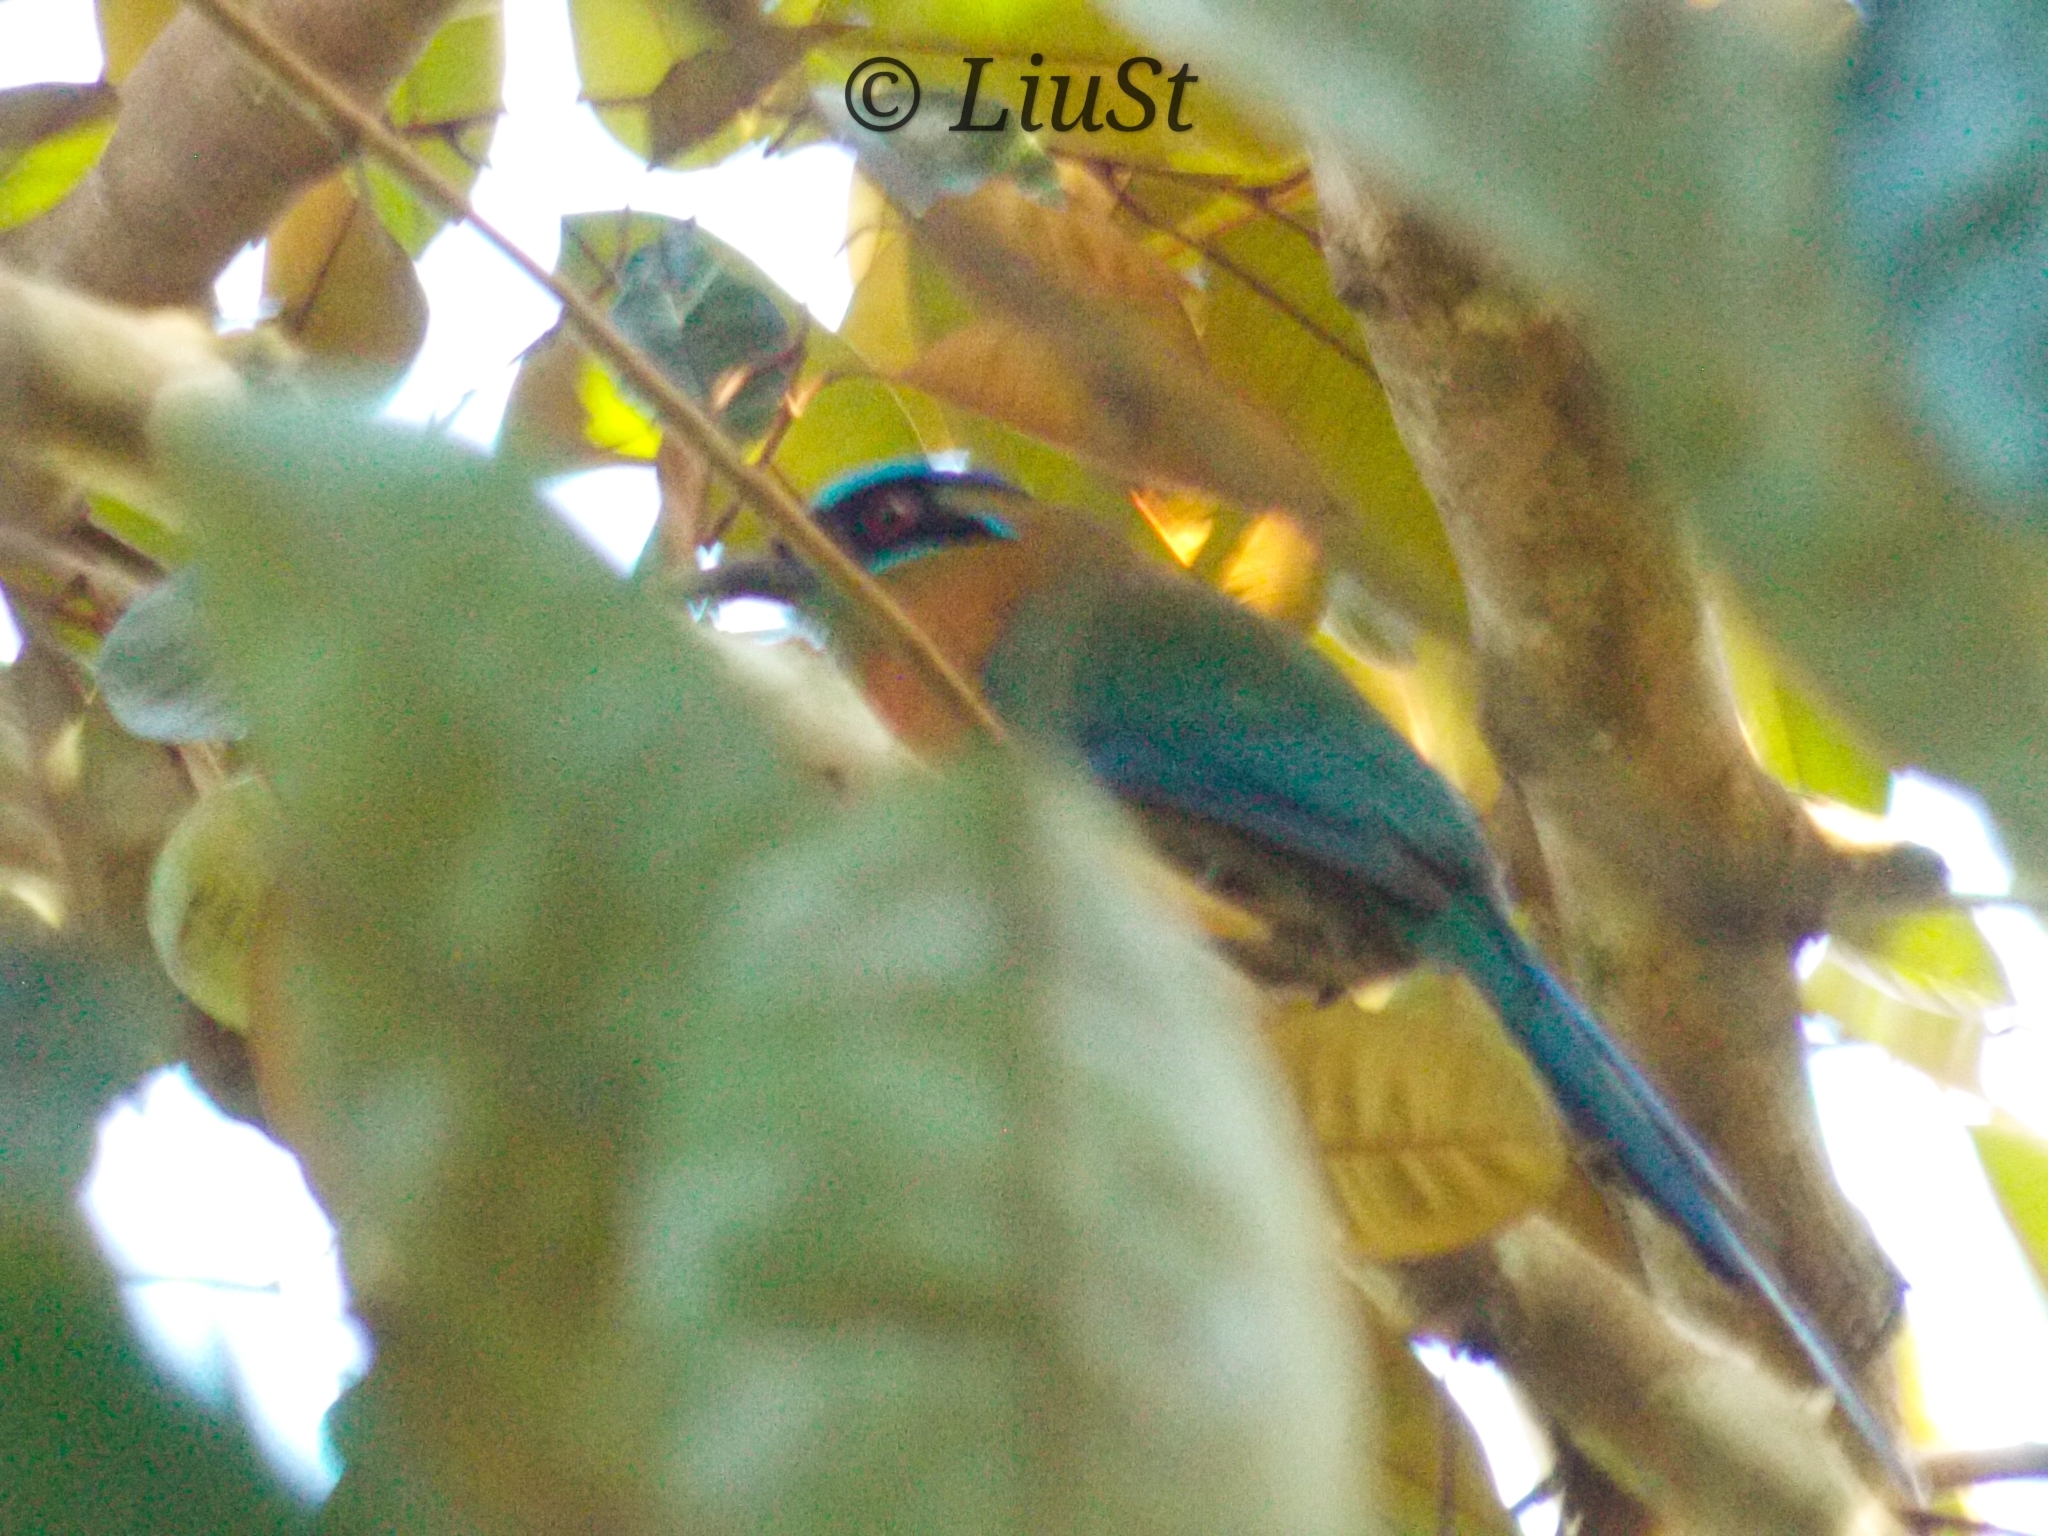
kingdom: Animalia
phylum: Chordata
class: Aves
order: Coraciiformes
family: Momotidae
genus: Momotus
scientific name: Momotus lessonii
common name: Lesson's motmot
